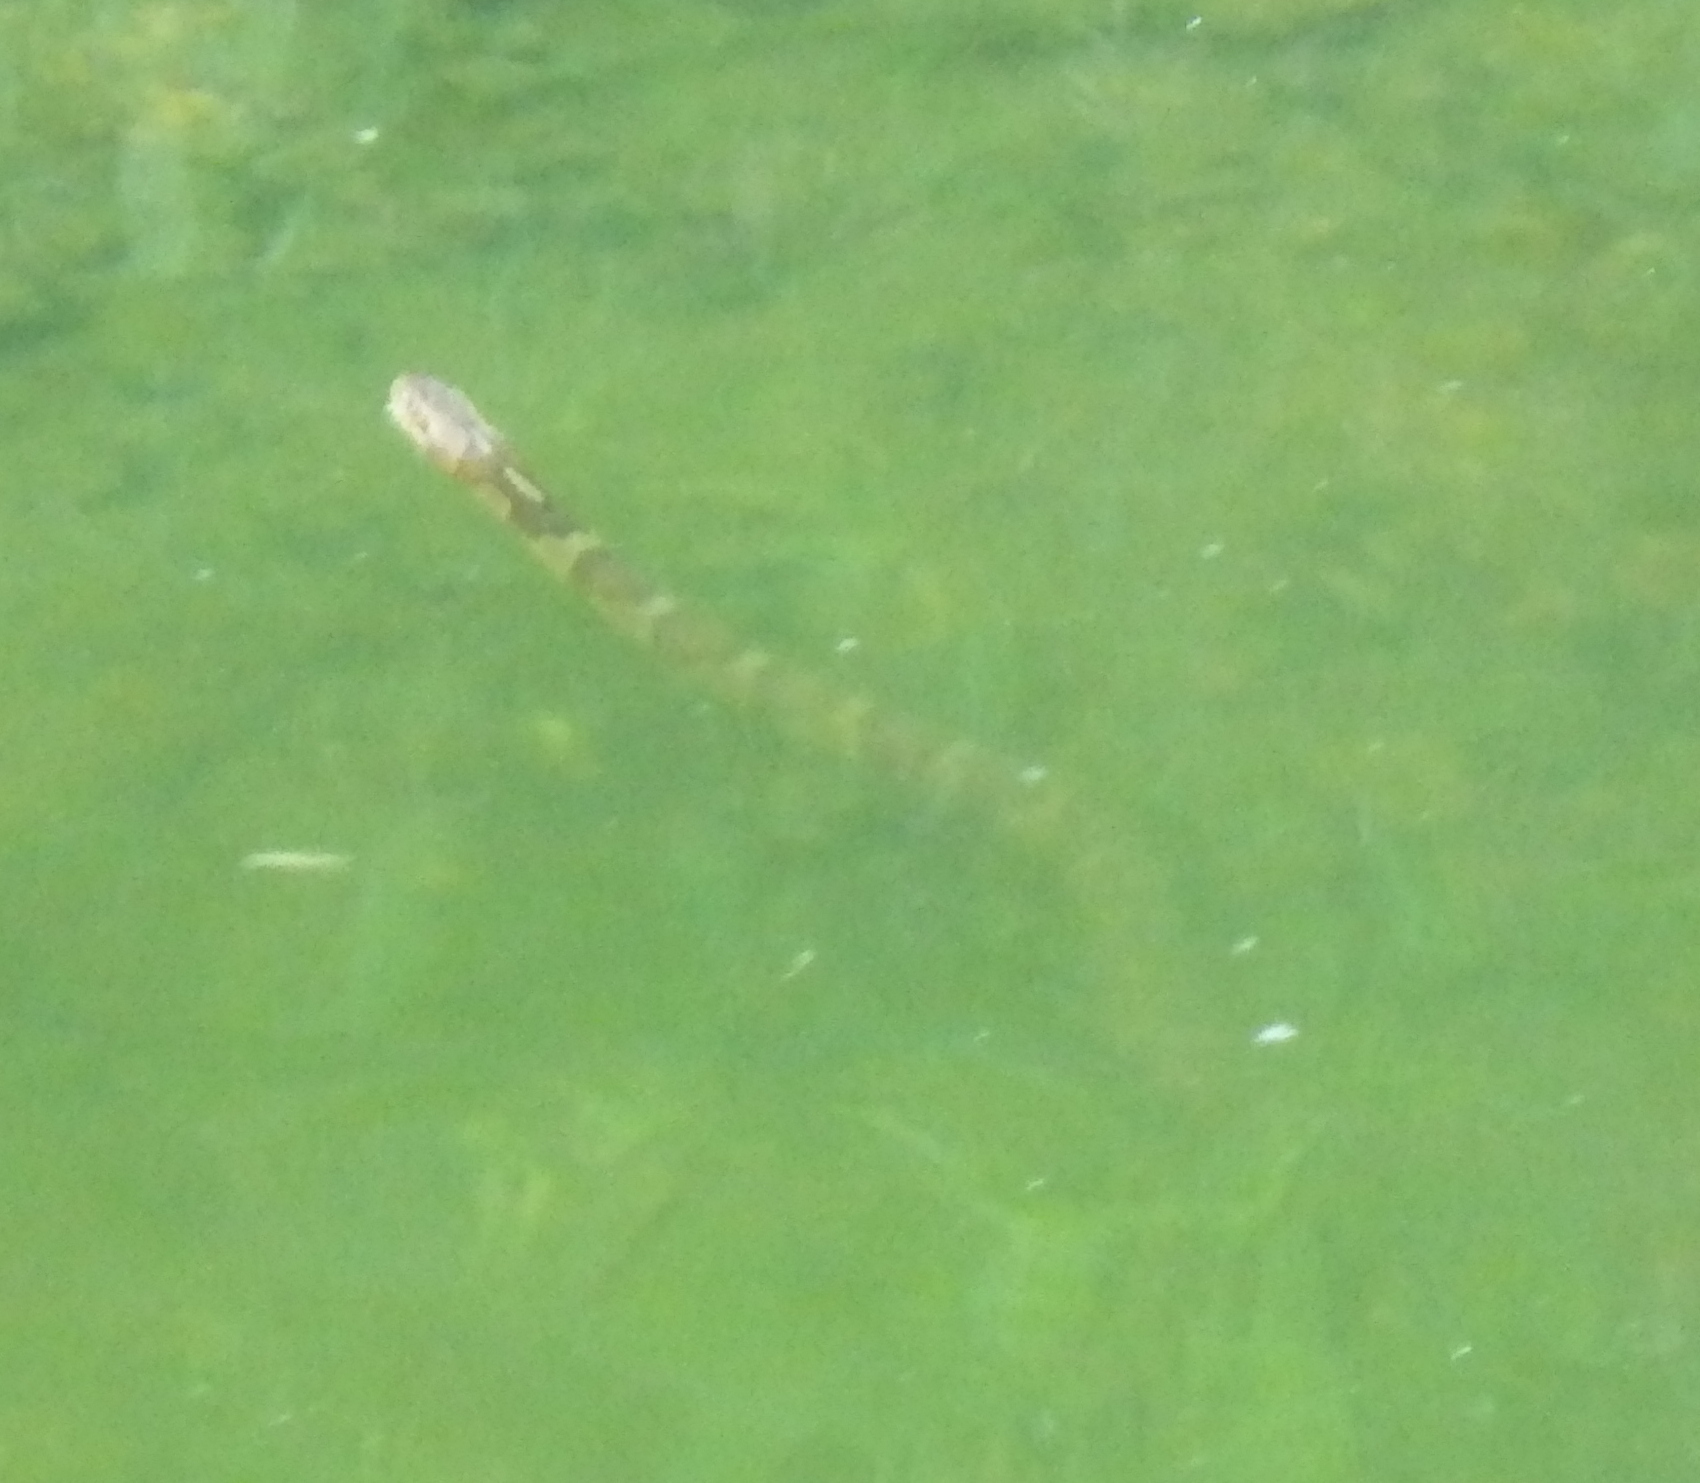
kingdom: Animalia
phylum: Chordata
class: Squamata
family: Colubridae
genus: Nerodia
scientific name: Nerodia sipedon
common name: Northern water snake
